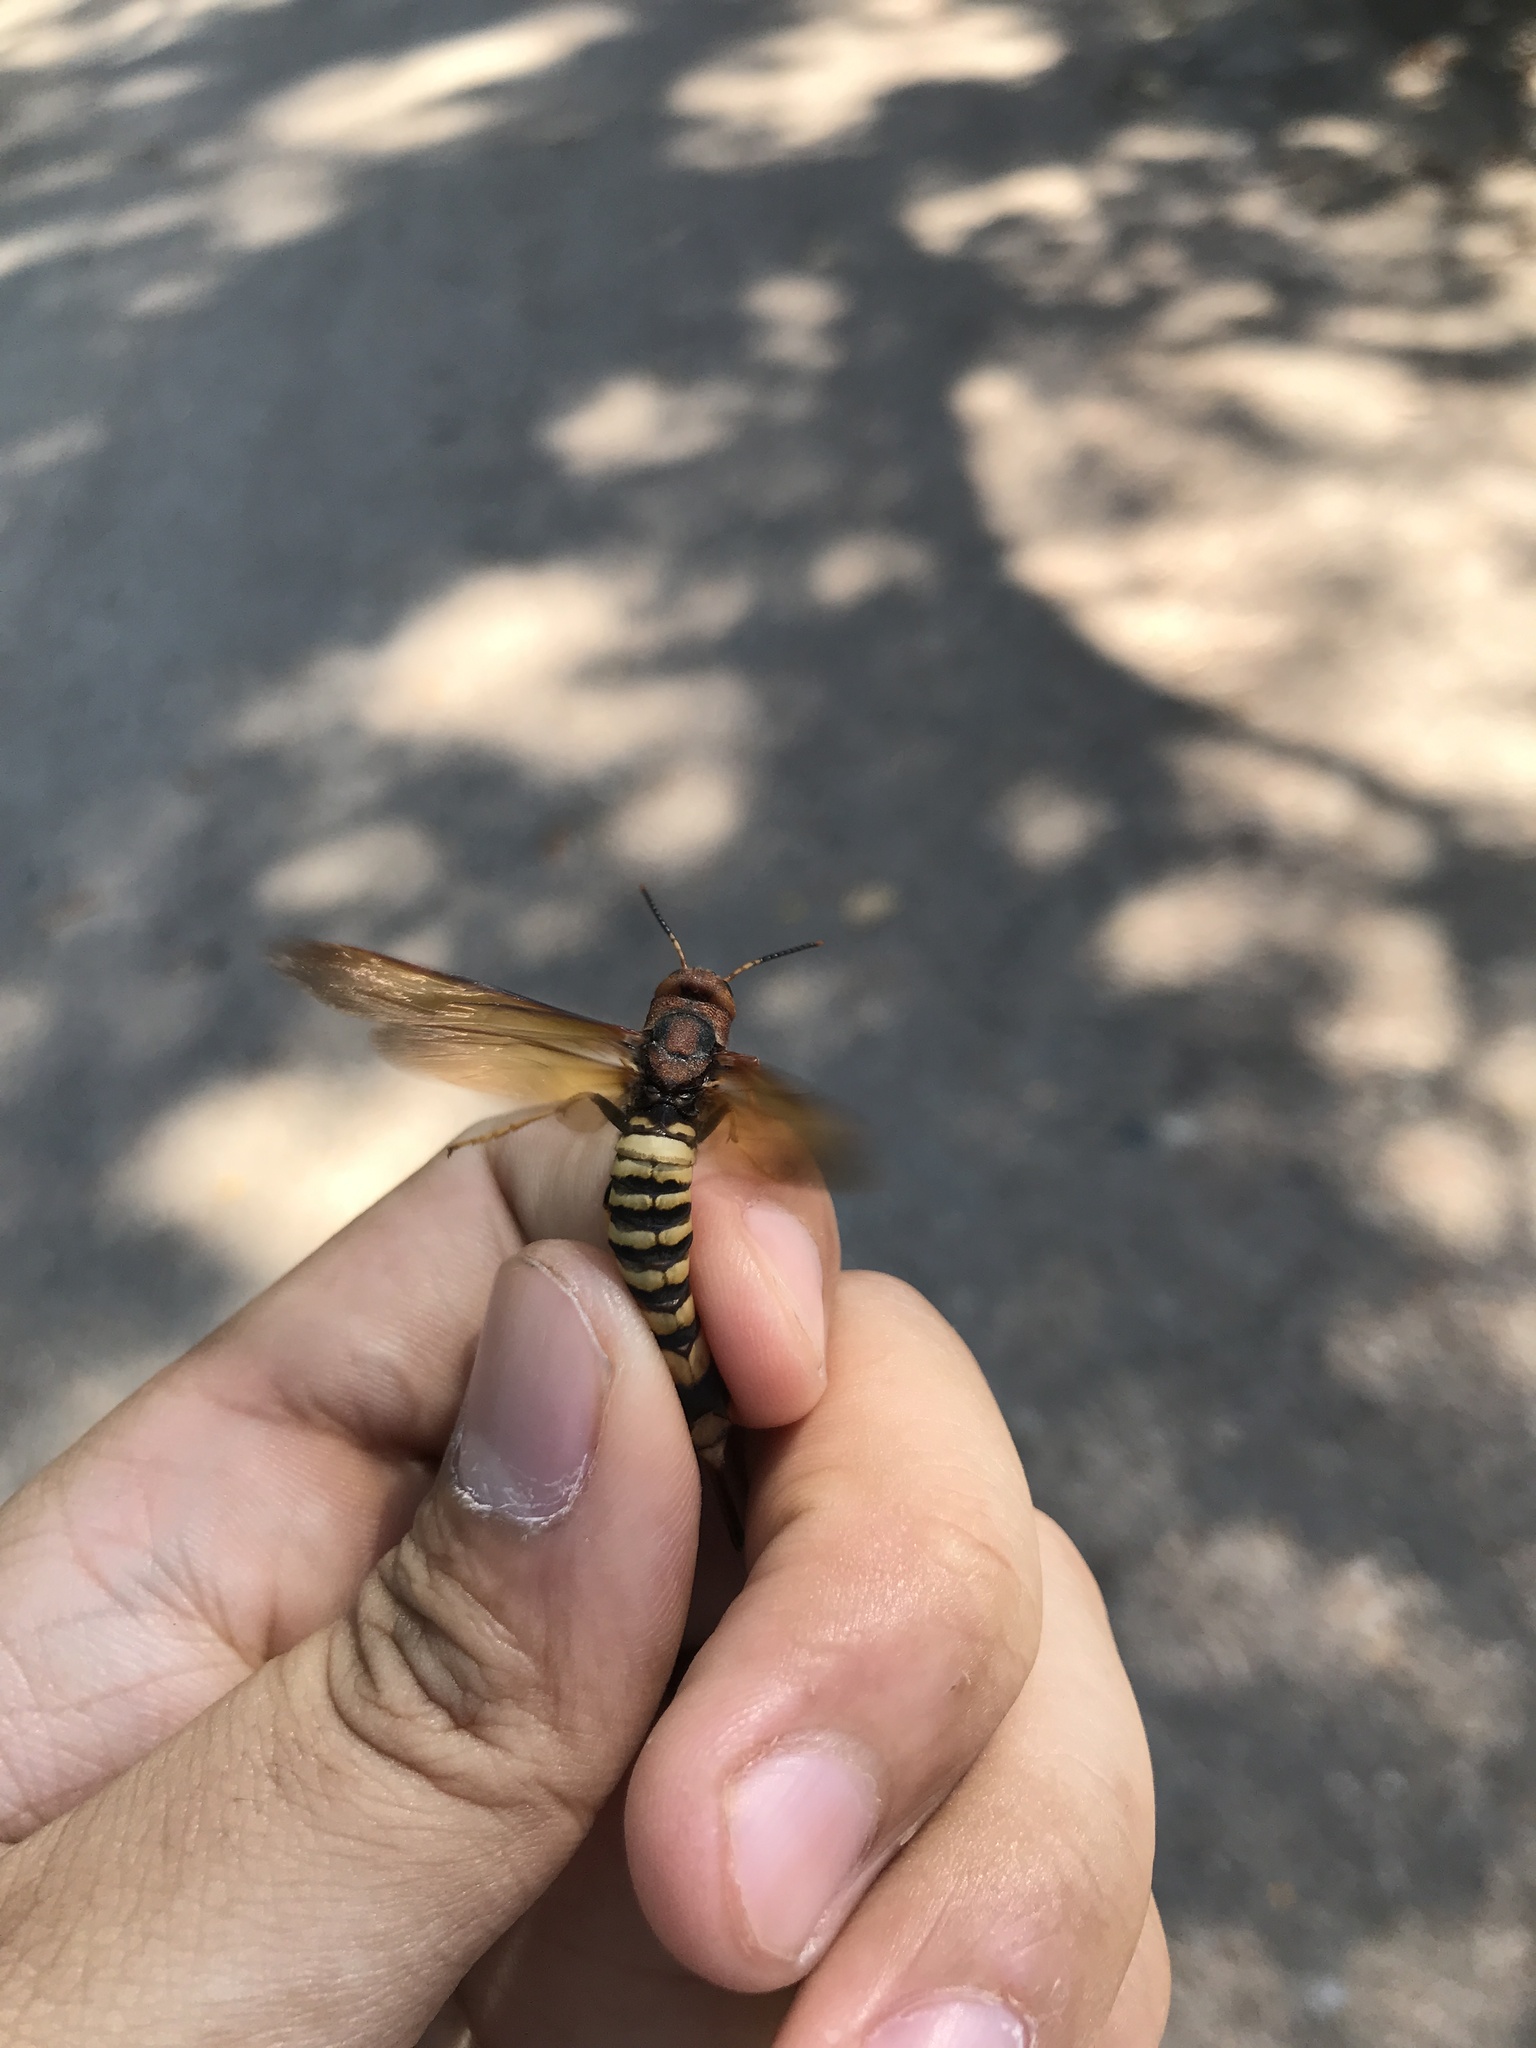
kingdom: Animalia
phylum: Arthropoda
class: Insecta
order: Hymenoptera
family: Siricidae
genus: Tremex
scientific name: Tremex columba
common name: Wasp
